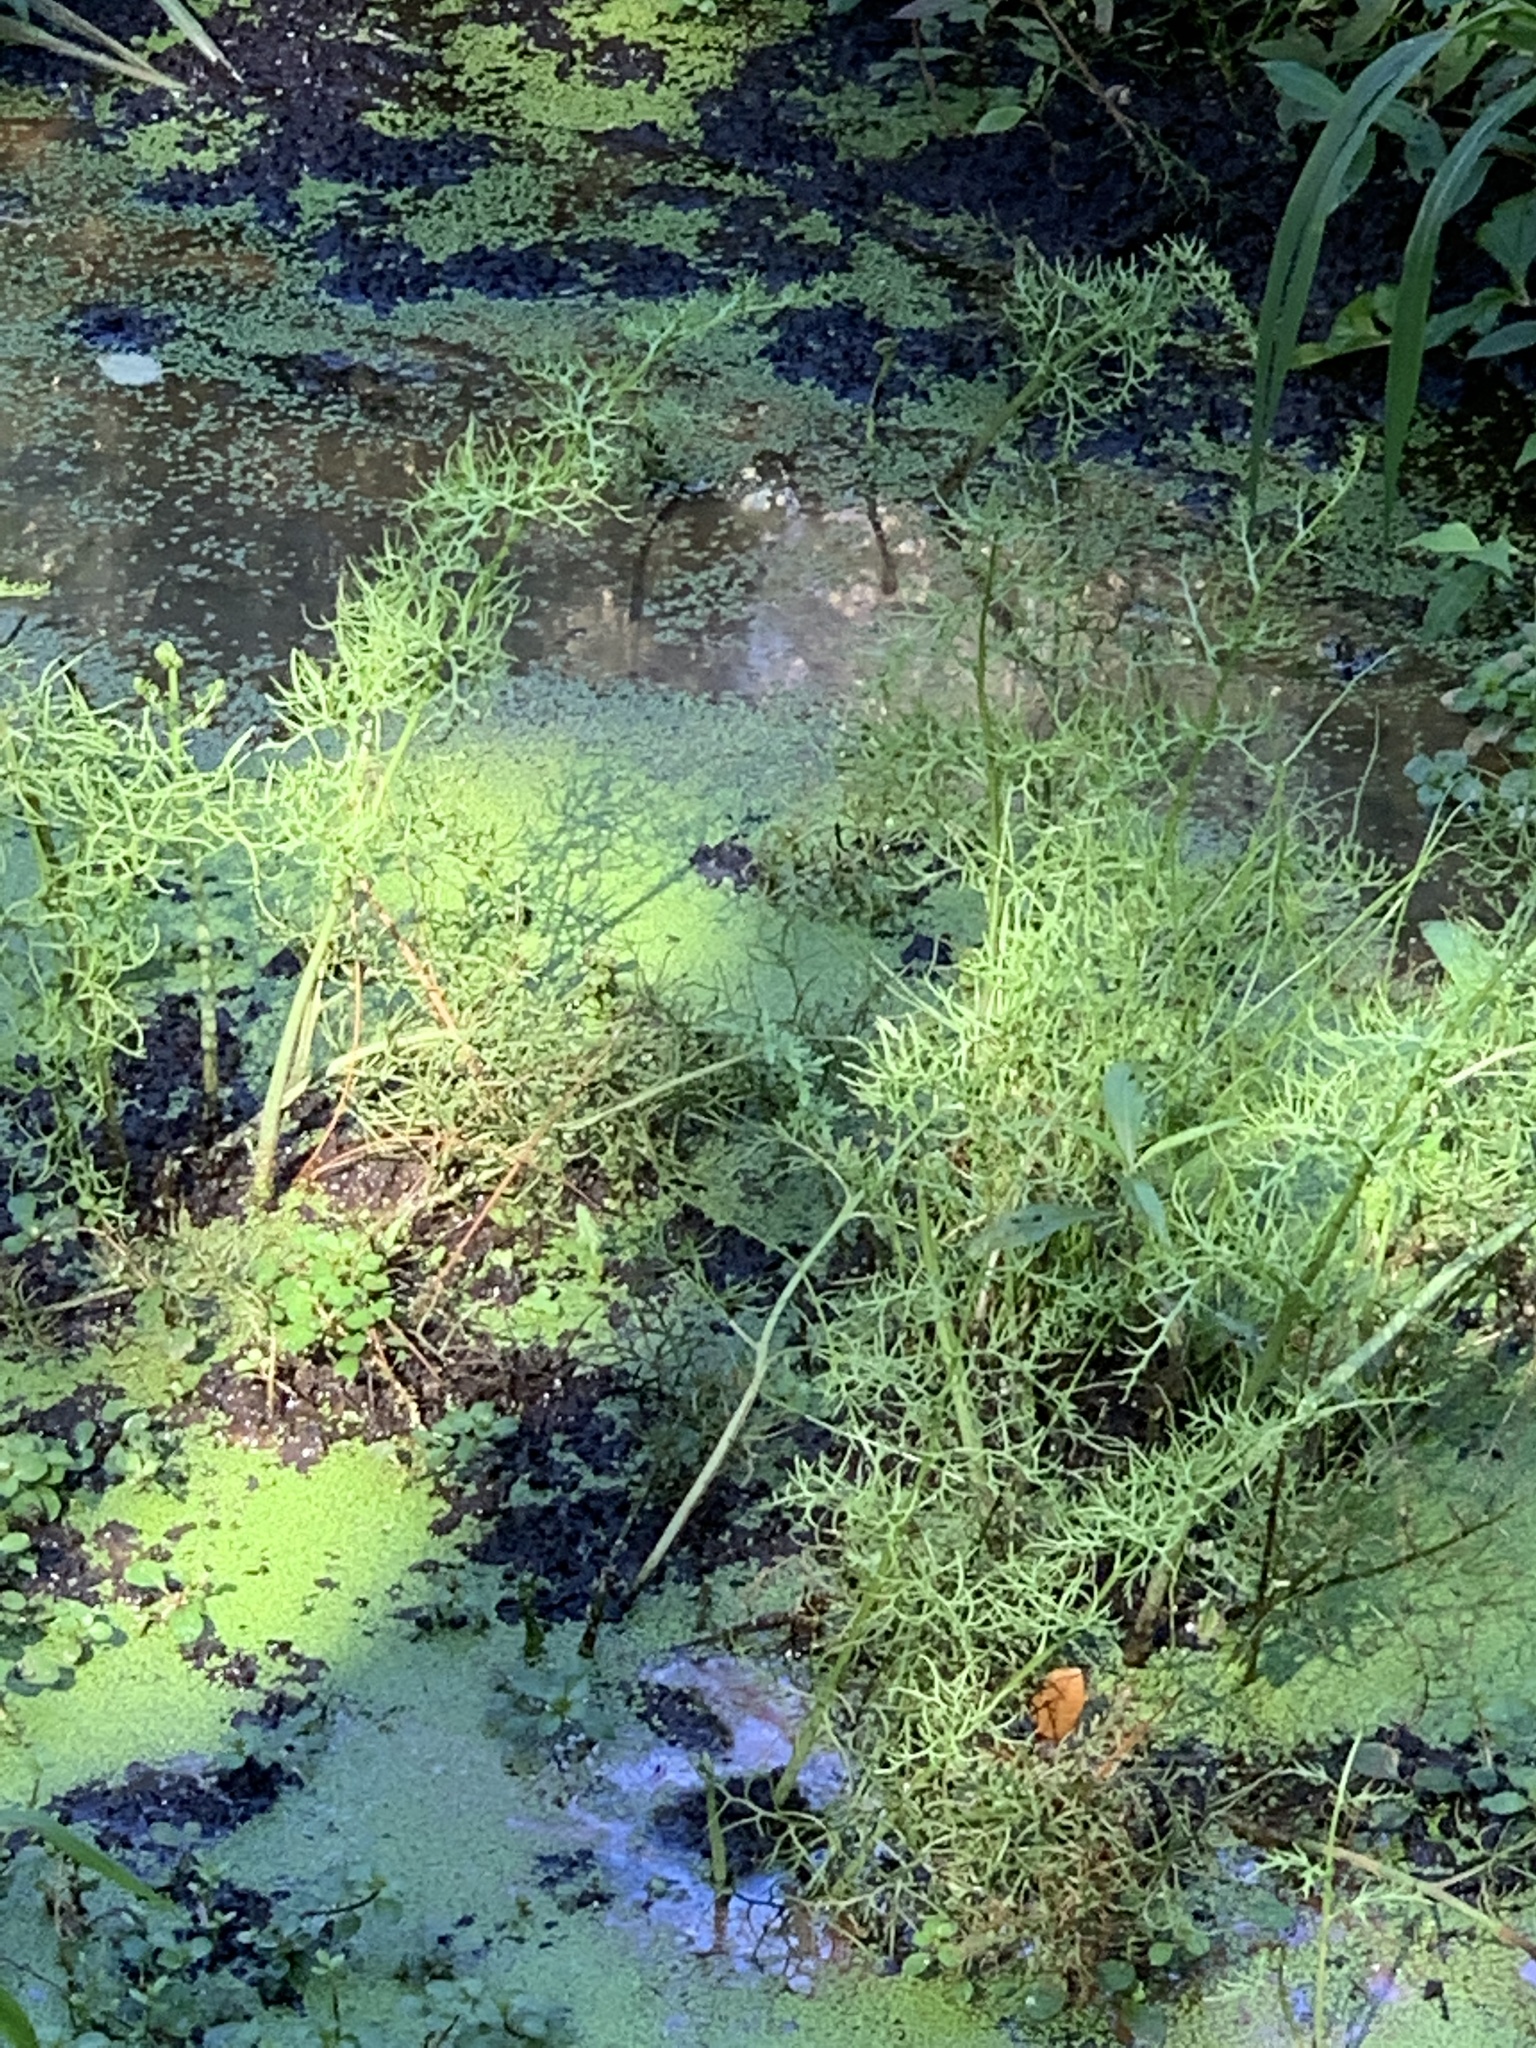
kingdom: Plantae
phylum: Tracheophyta
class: Polypodiopsida
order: Polypodiales
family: Pteridaceae
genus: Ceratopteris
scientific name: Ceratopteris thalictroides
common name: Water fern
